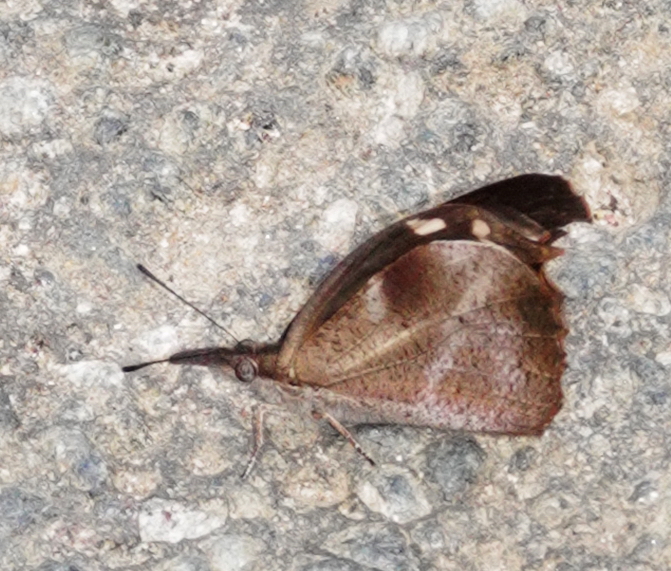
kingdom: Animalia
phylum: Arthropoda
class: Insecta
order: Lepidoptera
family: Nymphalidae
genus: Libythea
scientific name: Libythea myrrha
